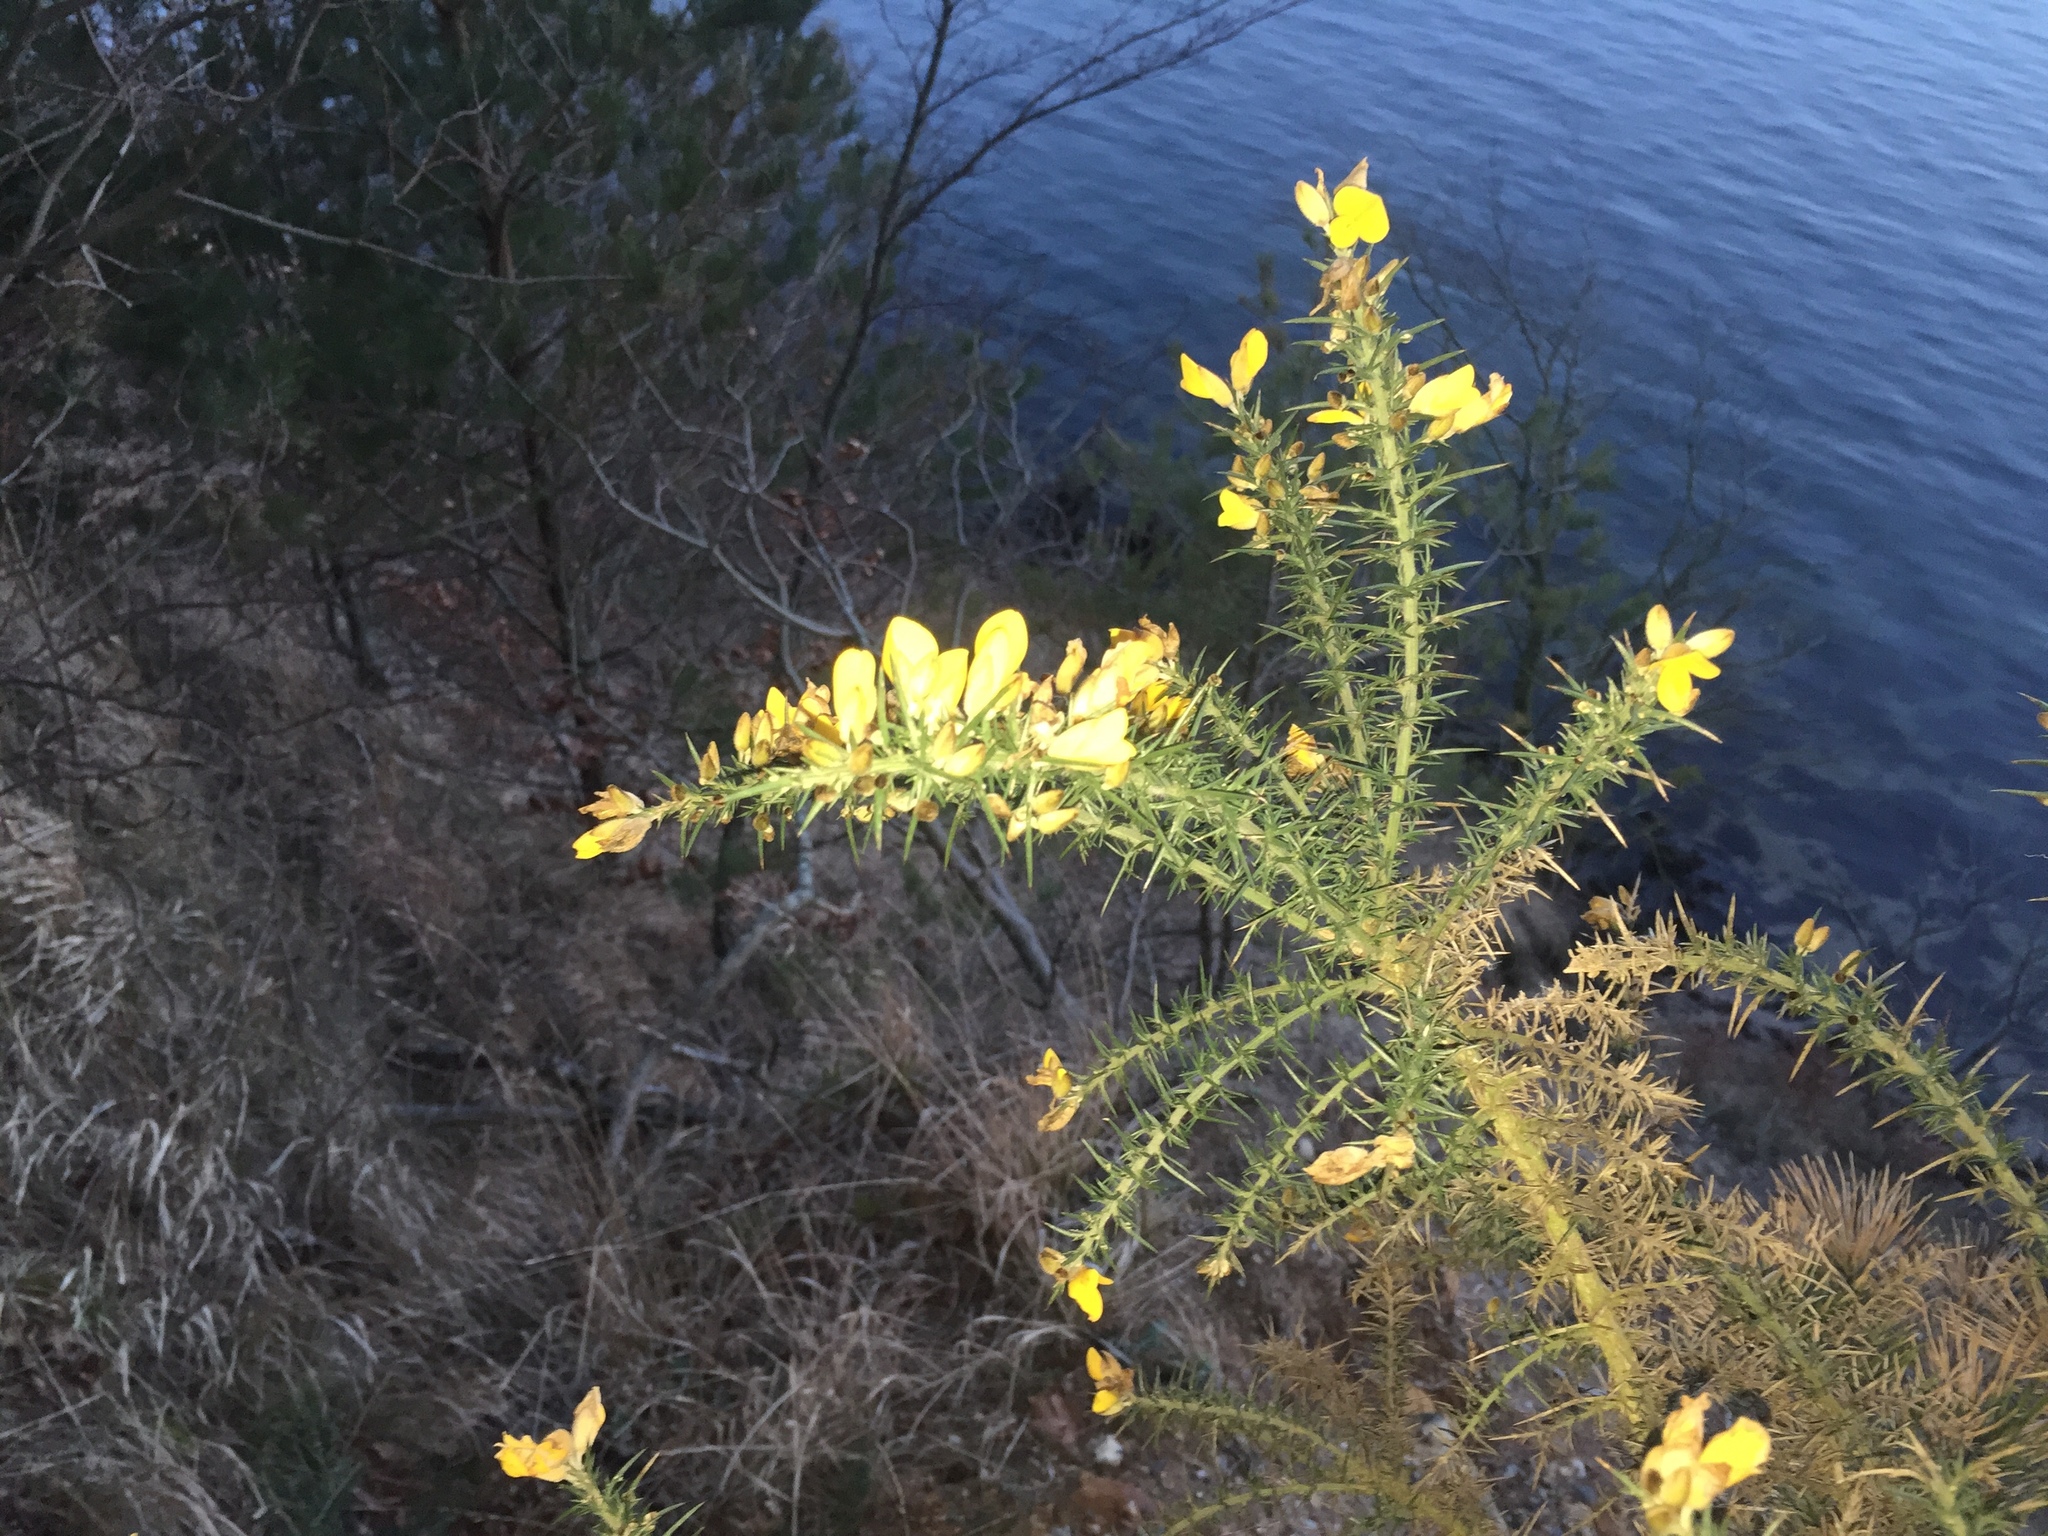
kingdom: Plantae
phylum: Tracheophyta
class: Magnoliopsida
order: Fabales
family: Fabaceae
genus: Ulex
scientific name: Ulex europaeus
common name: Common gorse
